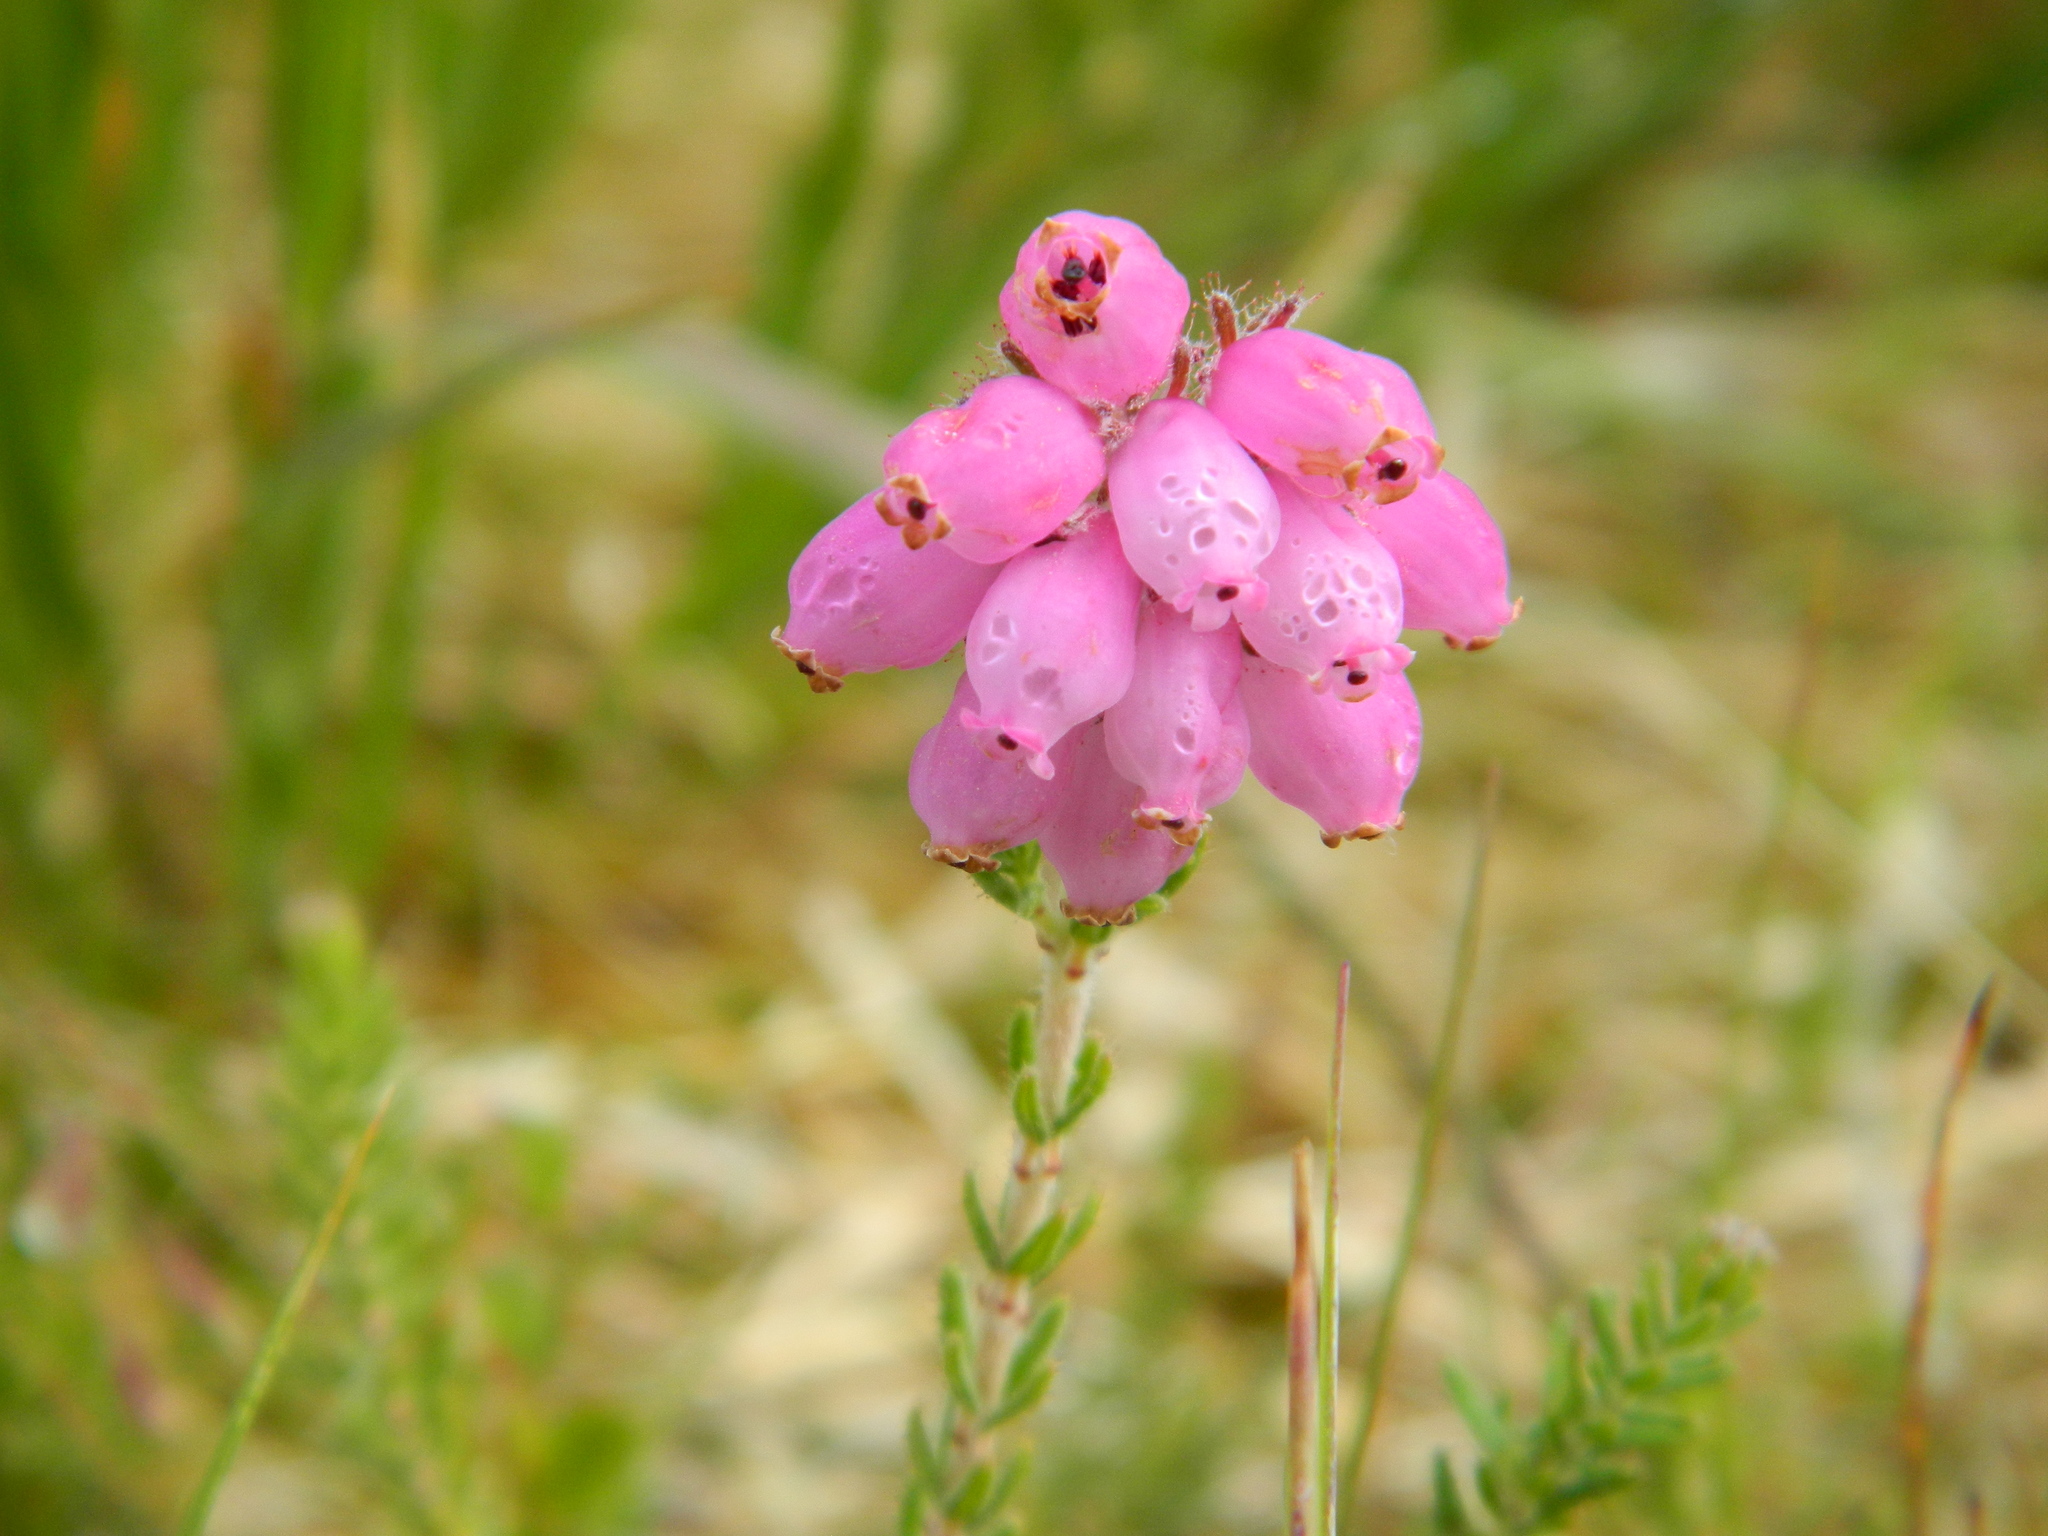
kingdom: Plantae
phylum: Tracheophyta
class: Magnoliopsida
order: Ericales
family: Ericaceae
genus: Erica
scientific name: Erica tetralix
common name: Cross-leaved heath
